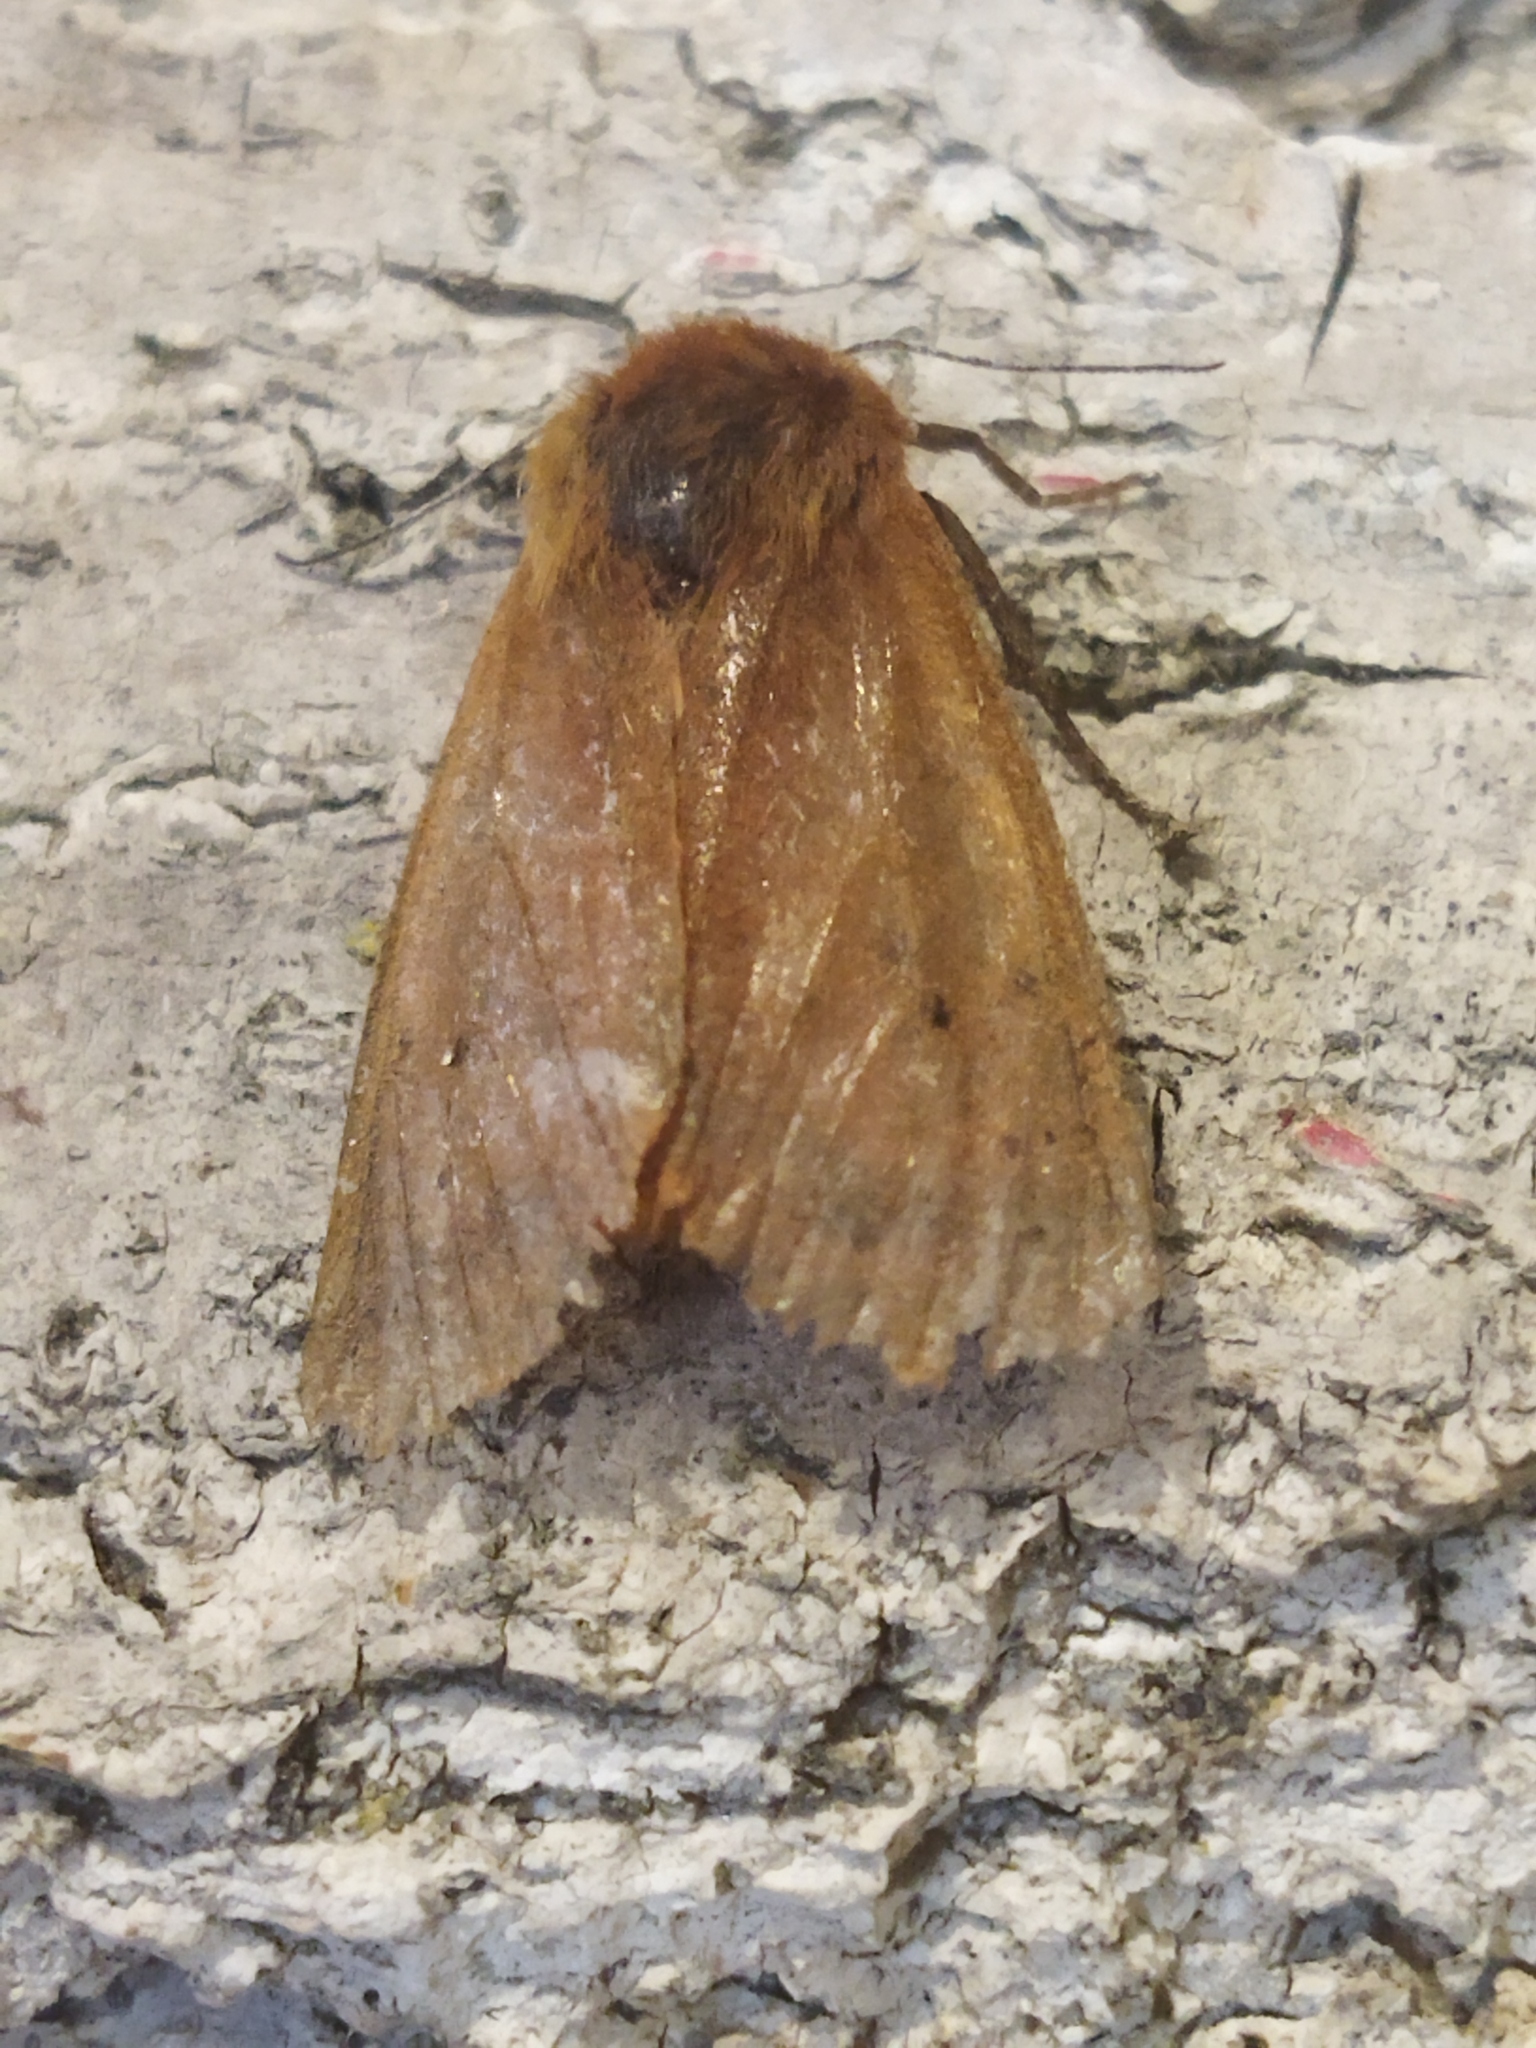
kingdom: Animalia
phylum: Arthropoda
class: Insecta
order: Lepidoptera
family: Erebidae
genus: Phragmatobia
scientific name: Phragmatobia fuliginosa
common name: Ruby tiger
